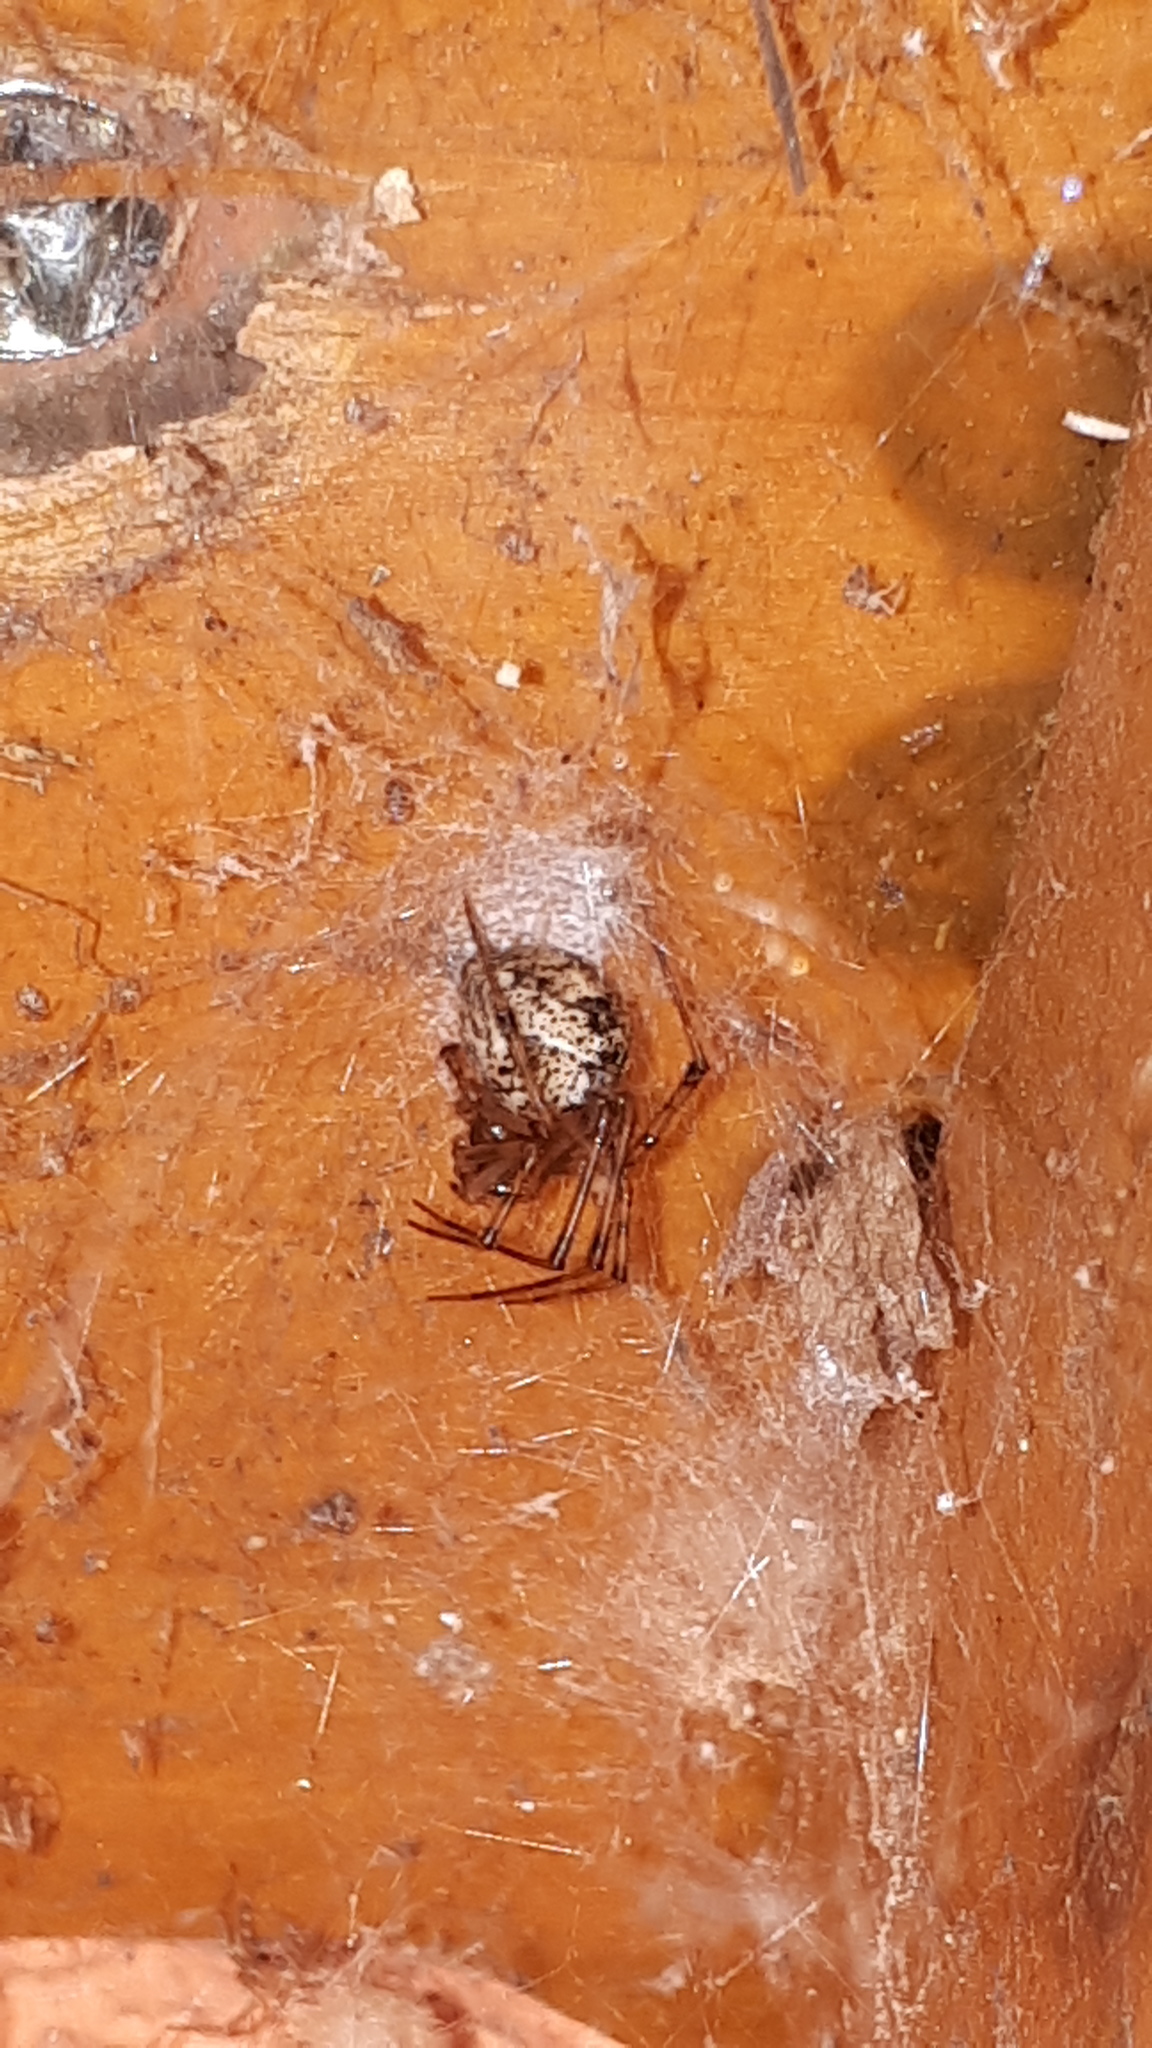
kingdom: Animalia
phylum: Arthropoda
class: Arachnida
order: Araneae
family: Theridiidae
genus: Parasteatoda
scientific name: Parasteatoda tepidariorum
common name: Common house spider
